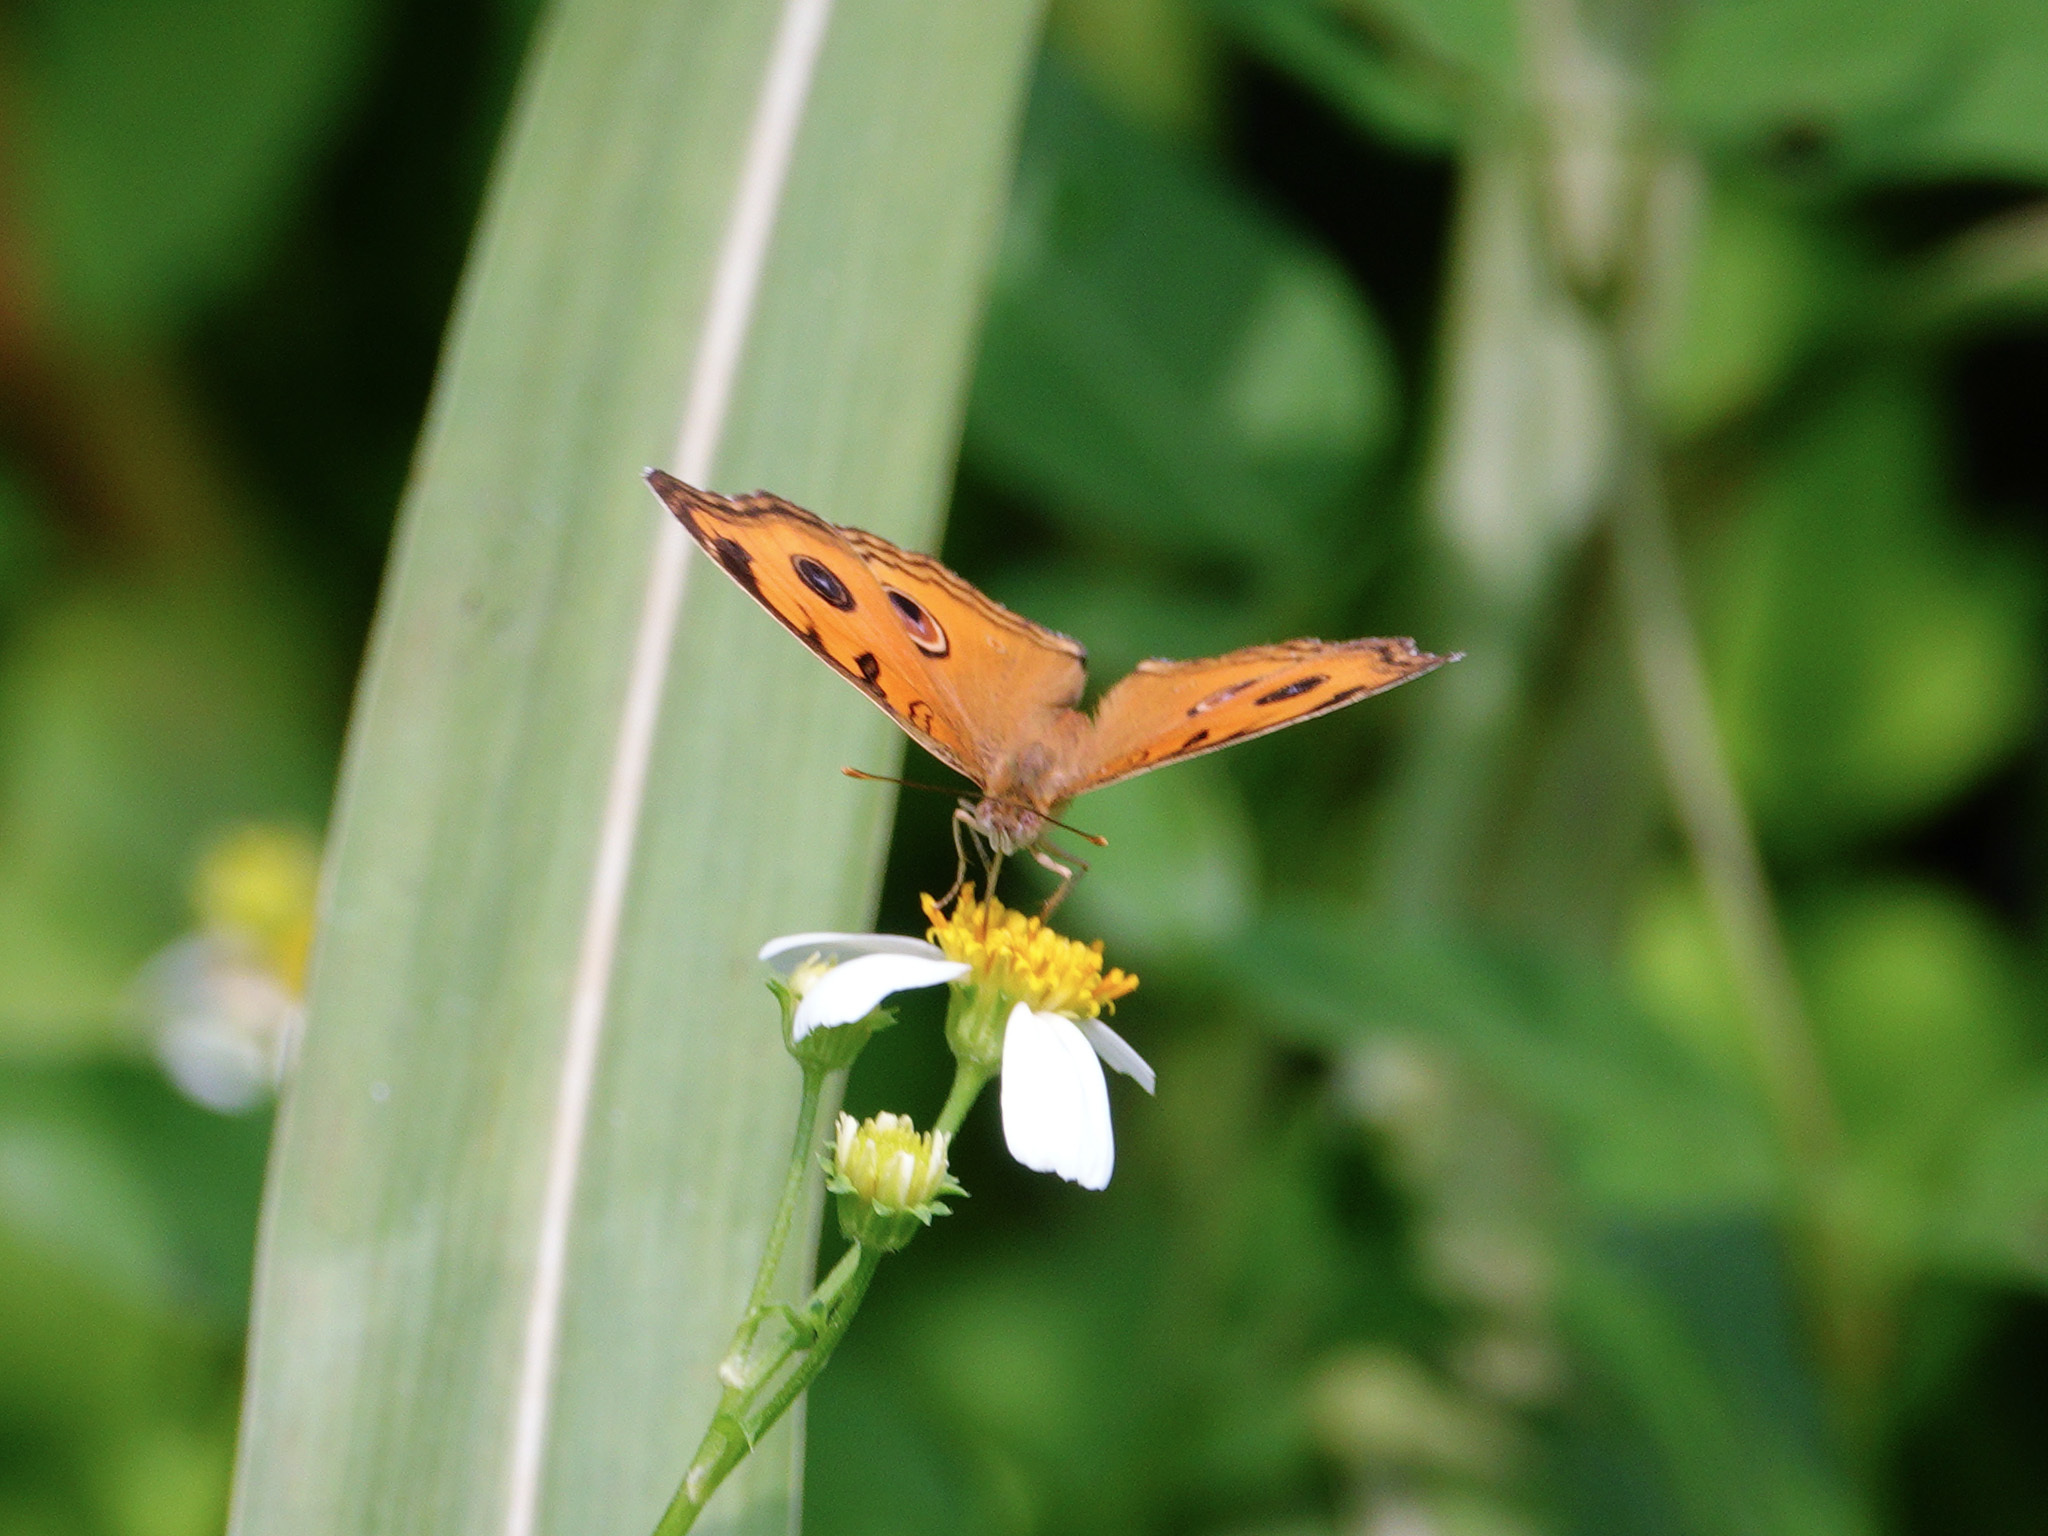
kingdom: Animalia
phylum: Arthropoda
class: Insecta
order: Lepidoptera
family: Nymphalidae
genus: Junonia
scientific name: Junonia almana
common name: Peacock pansy
